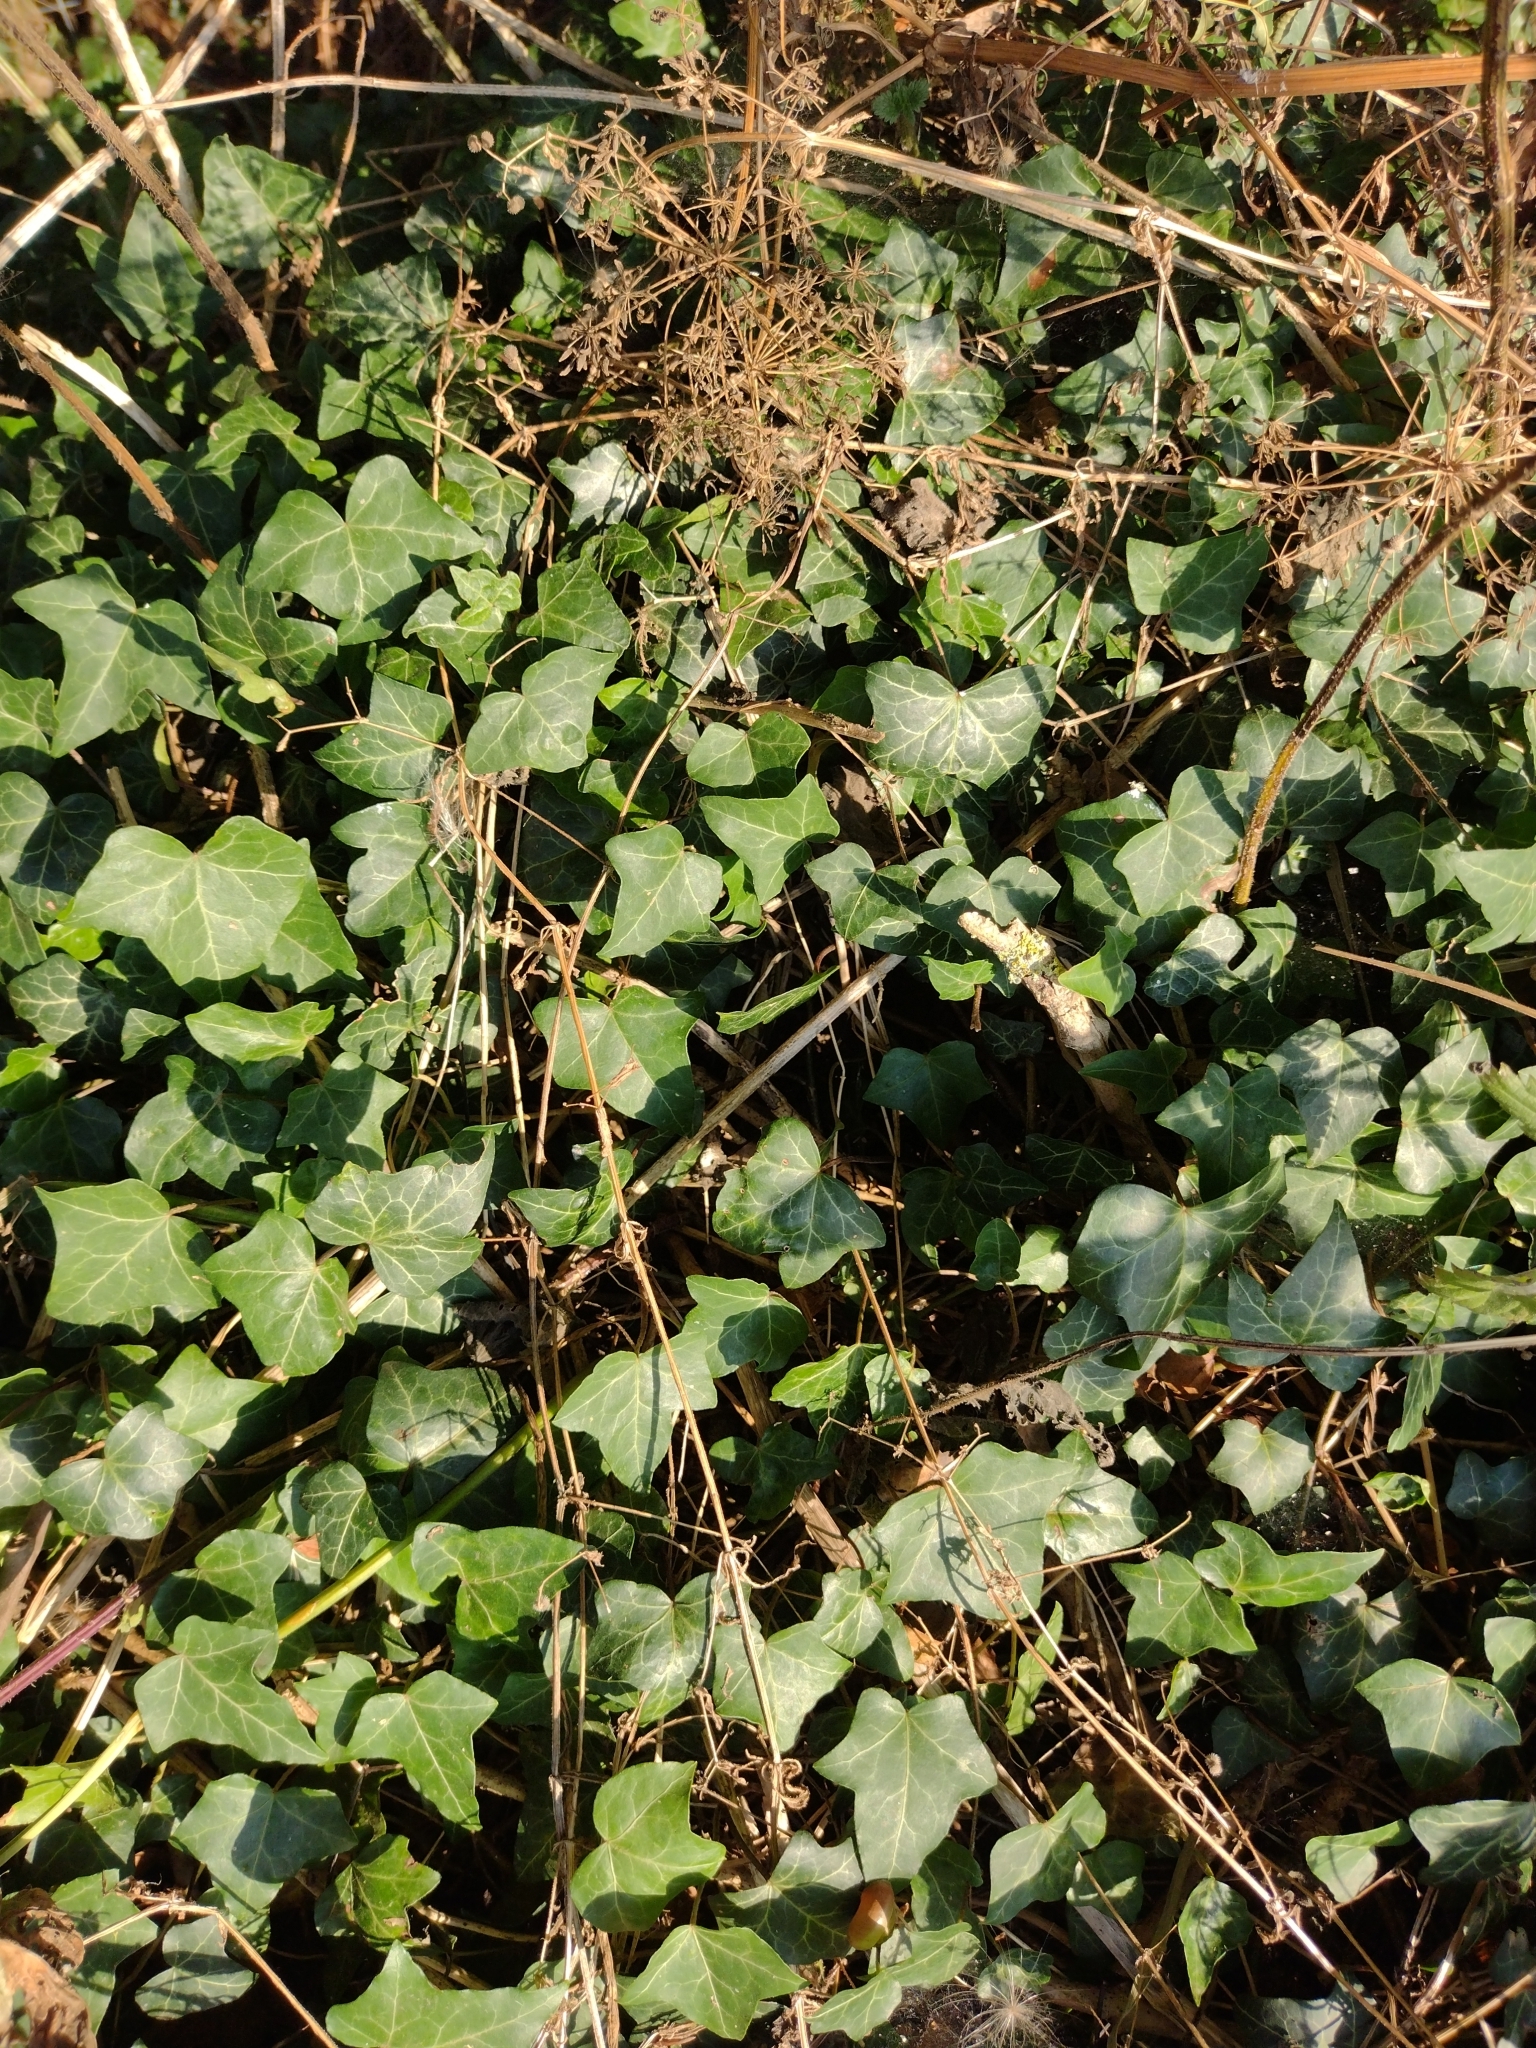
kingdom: Plantae
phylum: Tracheophyta
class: Magnoliopsida
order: Apiales
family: Araliaceae
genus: Hedera
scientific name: Hedera helix
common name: Ivy
